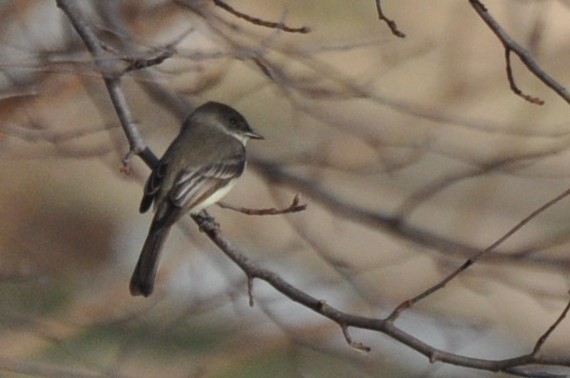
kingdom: Animalia
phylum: Chordata
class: Aves
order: Passeriformes
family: Tyrannidae
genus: Sayornis
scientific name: Sayornis phoebe
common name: Eastern phoebe
